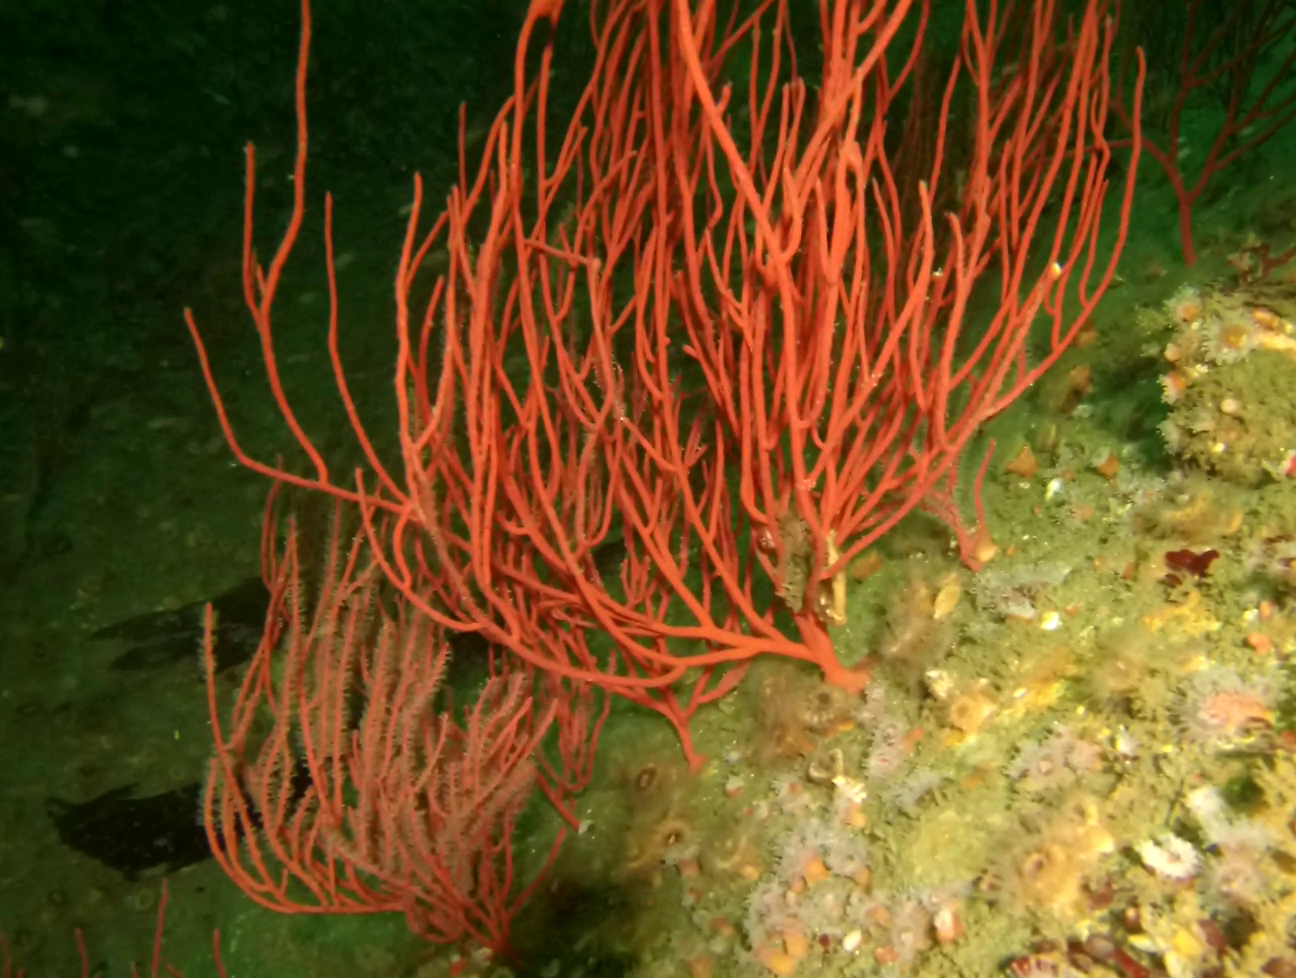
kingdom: Animalia
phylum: Cnidaria
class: Anthozoa
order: Malacalcyonacea
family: Gorgoniidae
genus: Leptogorgia
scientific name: Leptogorgia chilensis
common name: Carmine sea spray
